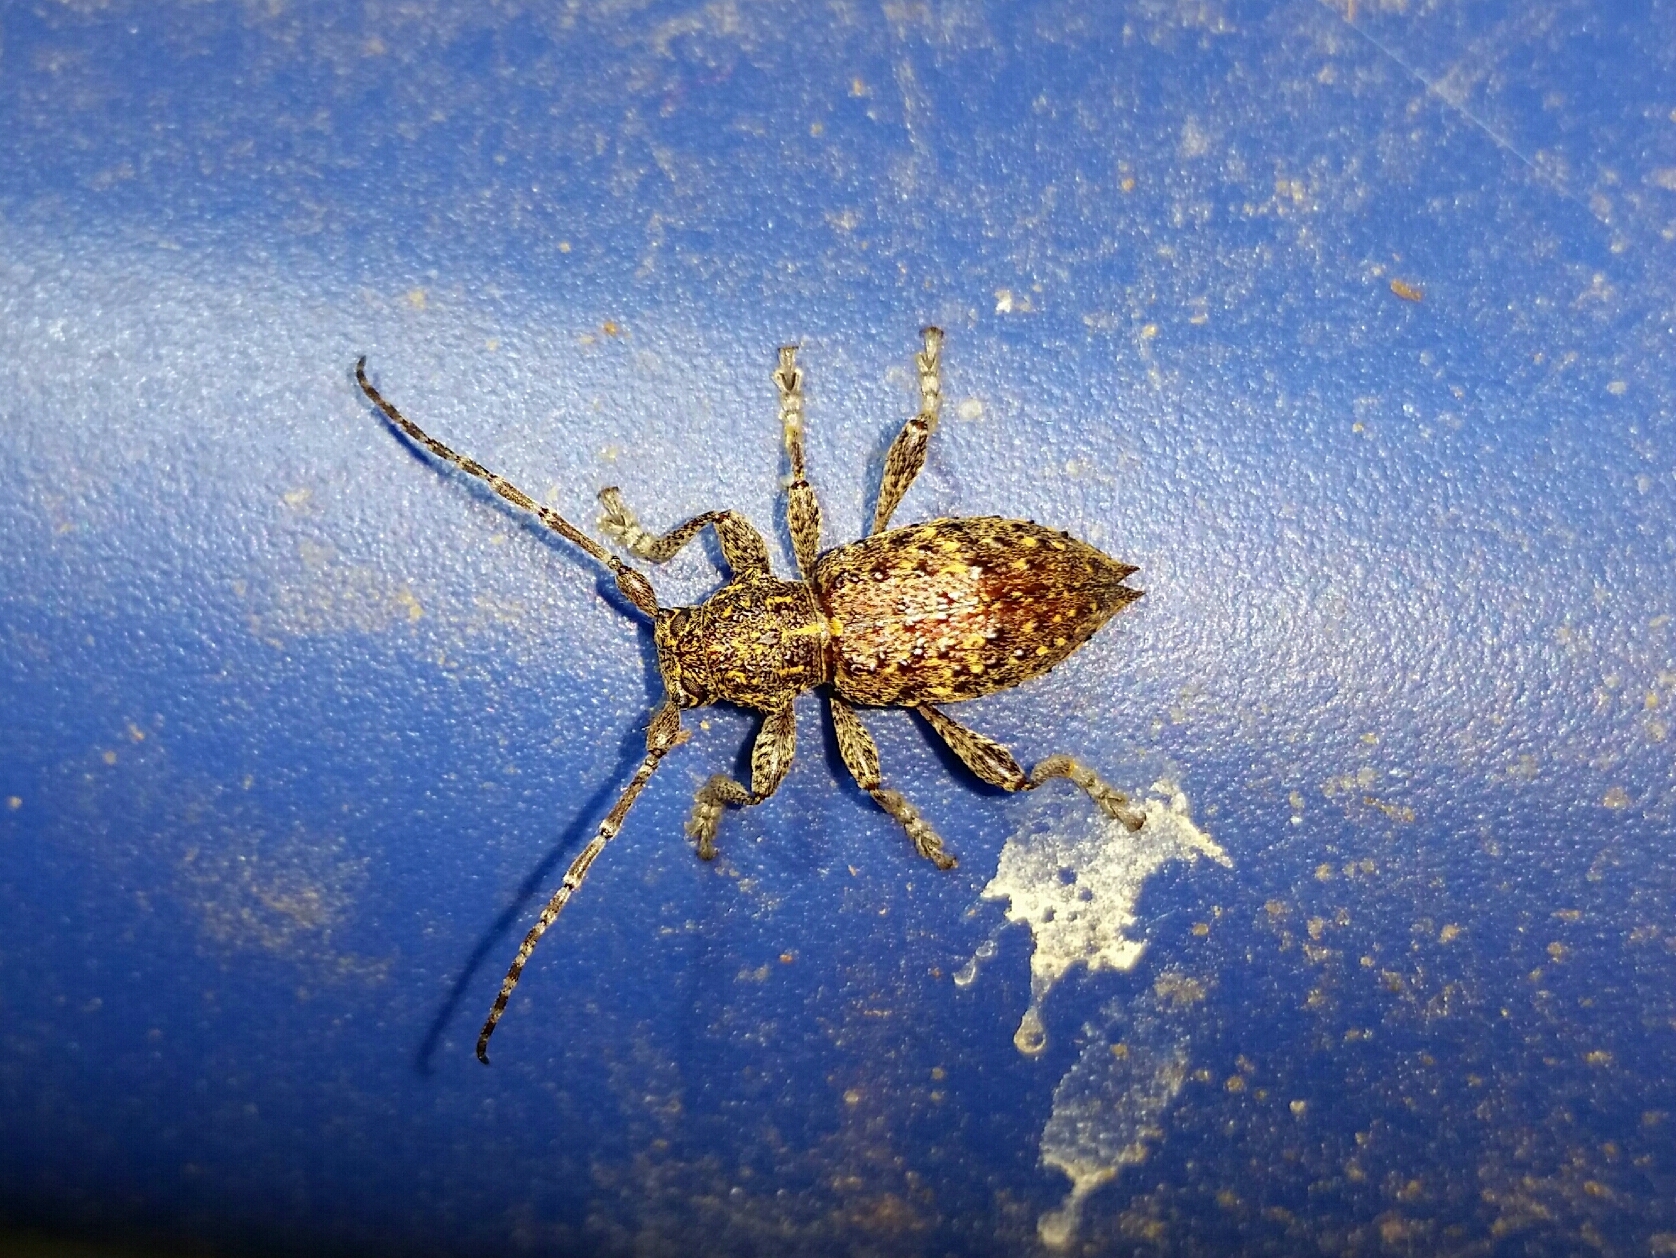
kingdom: Animalia
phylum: Arthropoda
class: Insecta
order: Coleoptera
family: Cerambycidae
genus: Plectrura
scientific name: Plectrura spinicauda
